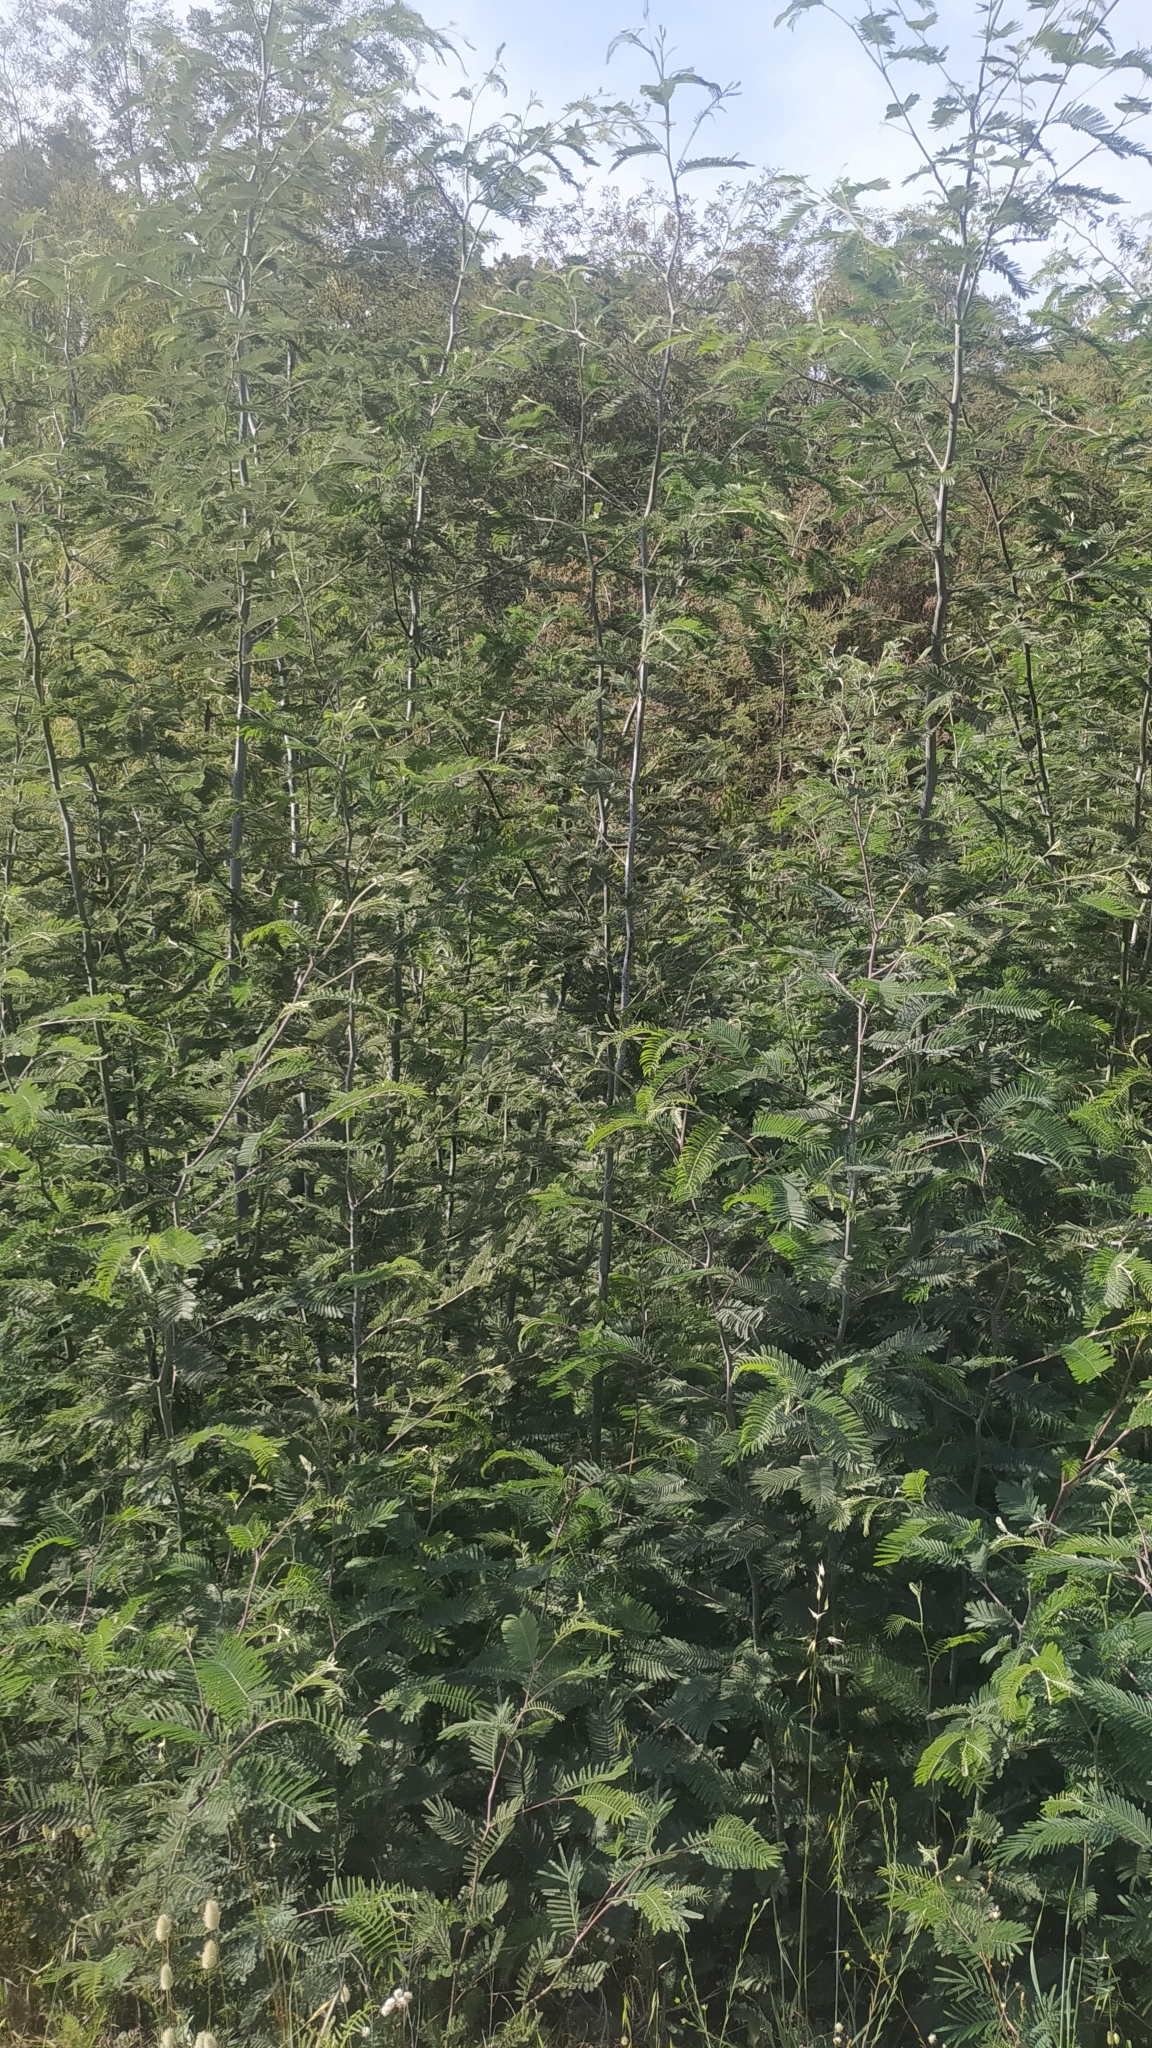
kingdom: Plantae
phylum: Tracheophyta
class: Magnoliopsida
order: Fabales
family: Fabaceae
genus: Acacia
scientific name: Acacia dealbata
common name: Silver wattle
